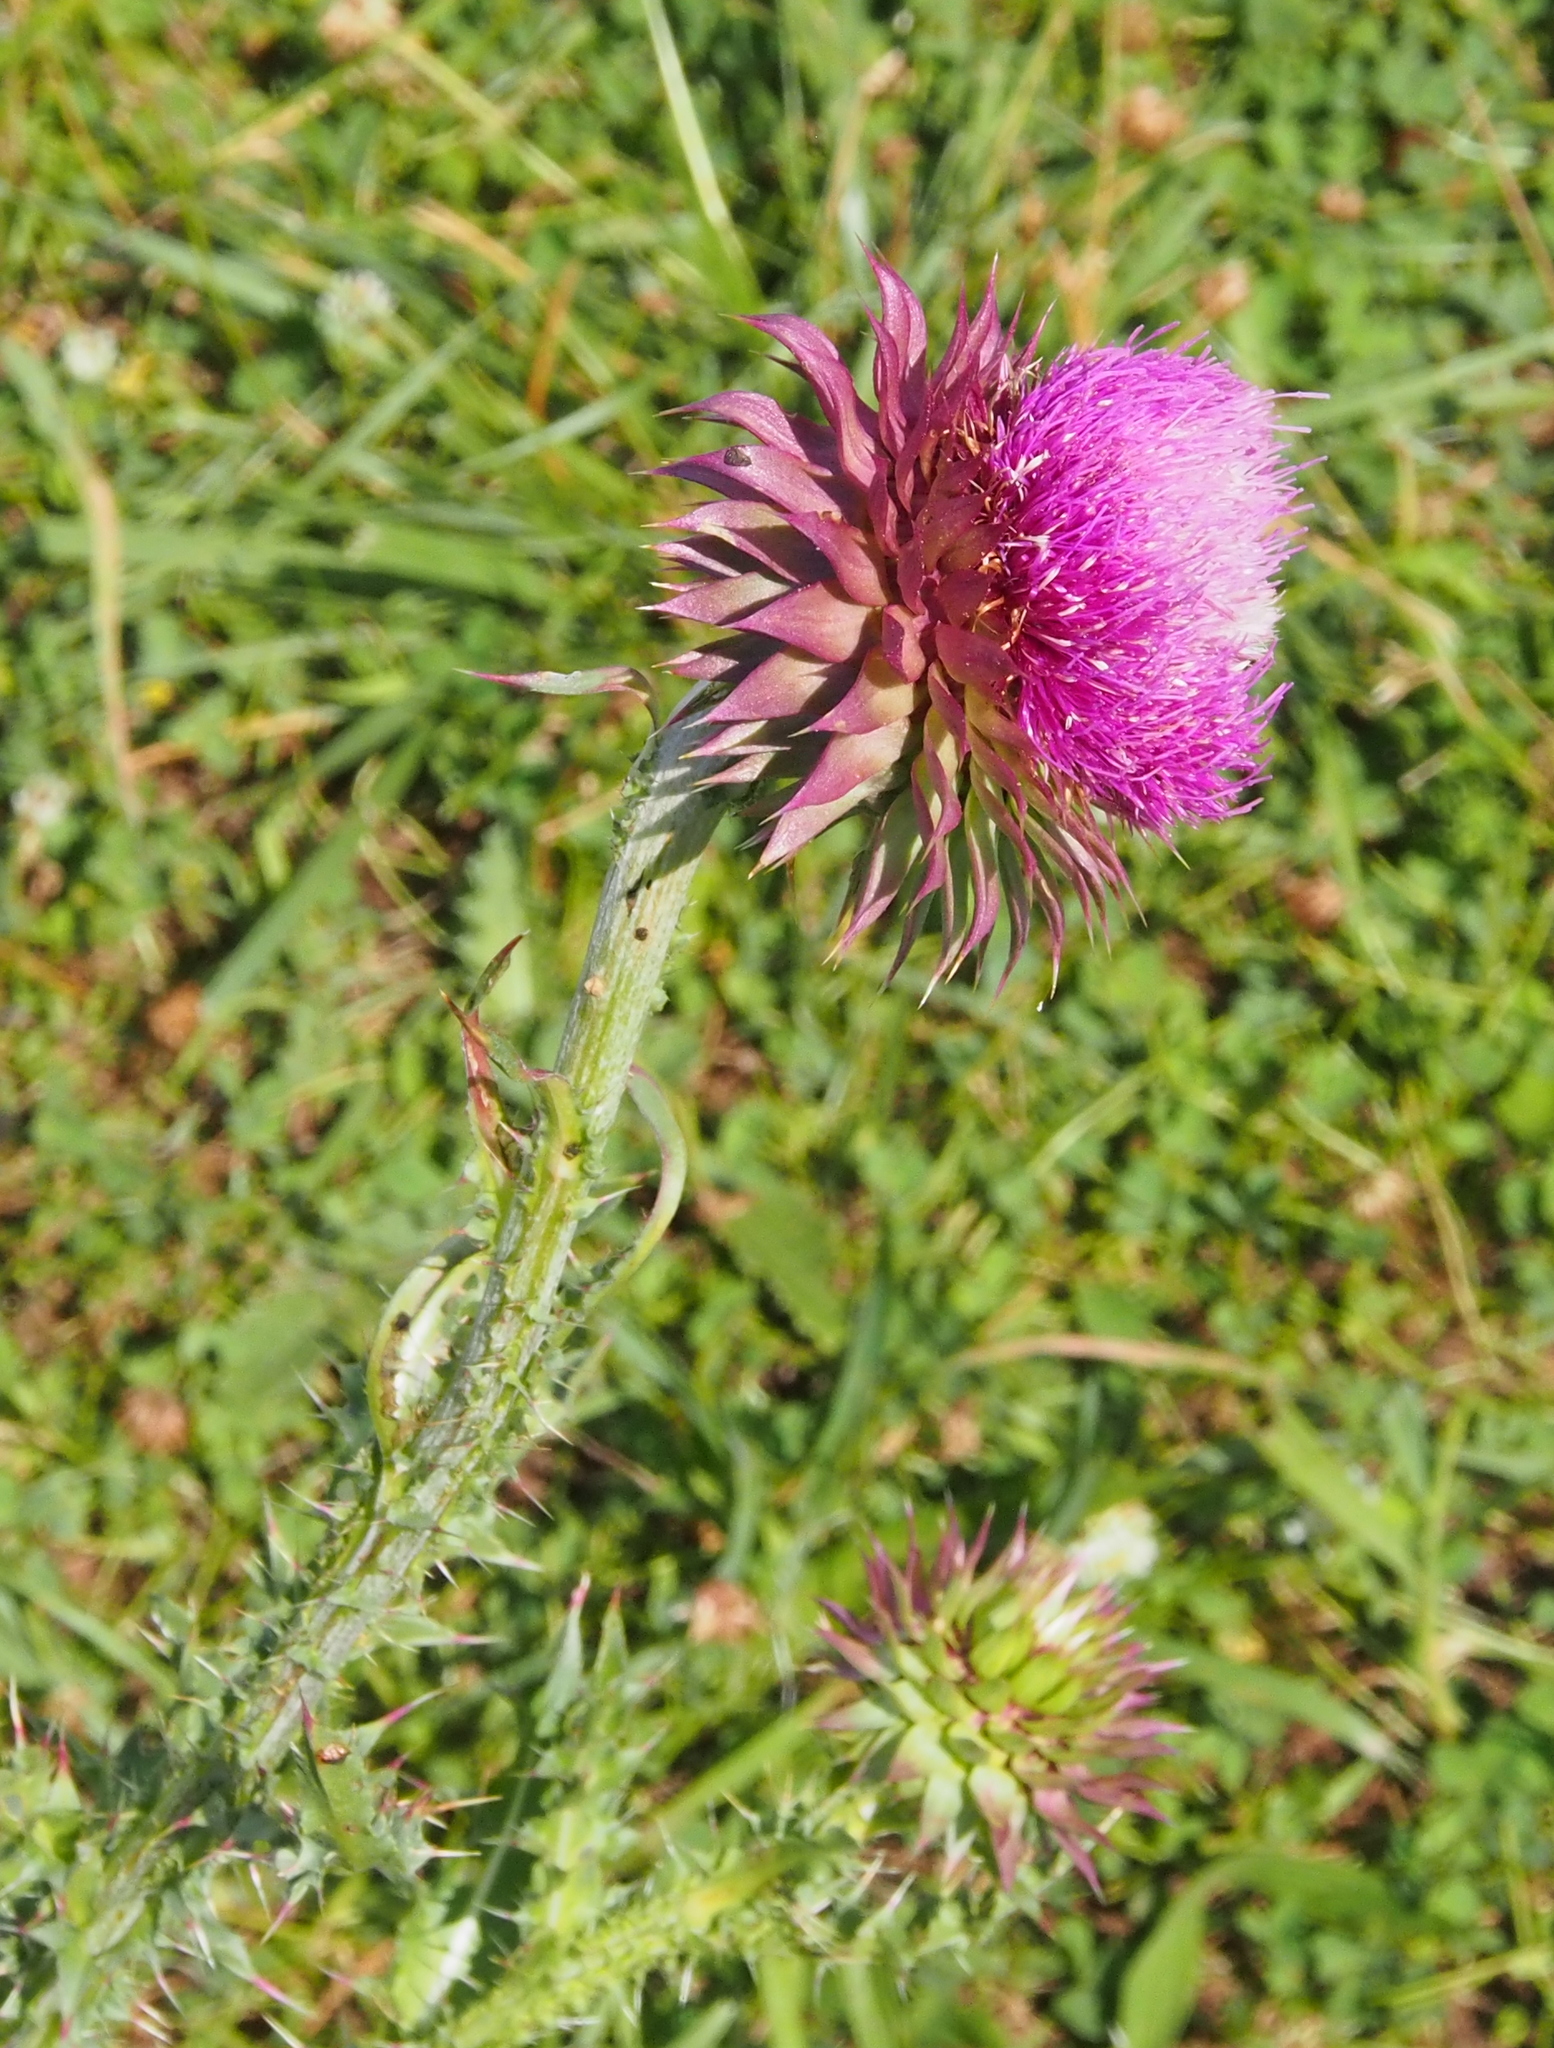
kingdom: Plantae
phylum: Tracheophyta
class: Magnoliopsida
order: Asterales
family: Asteraceae
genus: Carduus
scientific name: Carduus nutans
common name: Musk thistle
